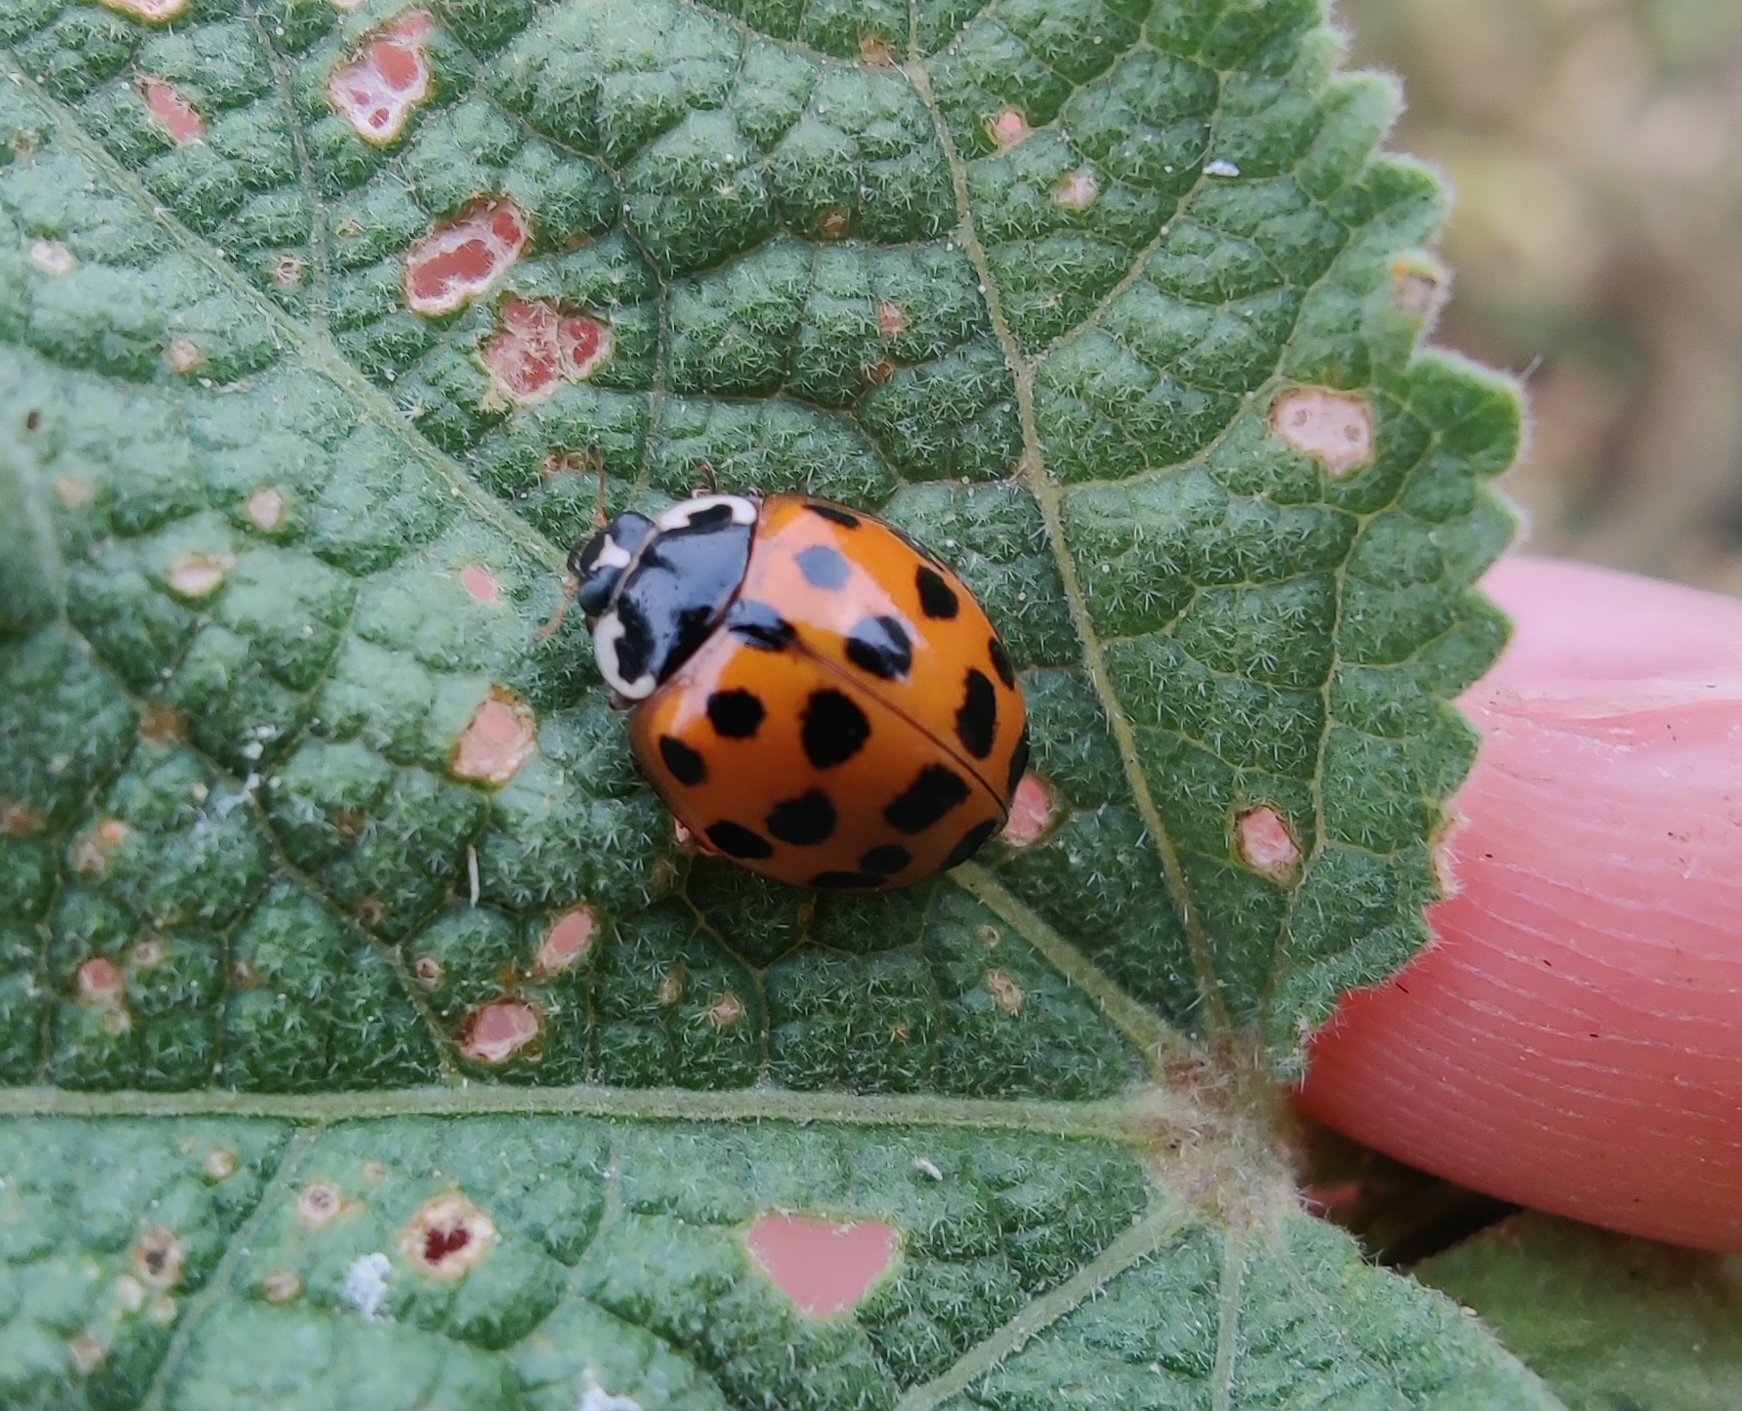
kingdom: Animalia
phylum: Arthropoda
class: Insecta
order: Coleoptera
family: Coccinellidae
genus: Harmonia
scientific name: Harmonia axyridis
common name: Harlequin ladybird
